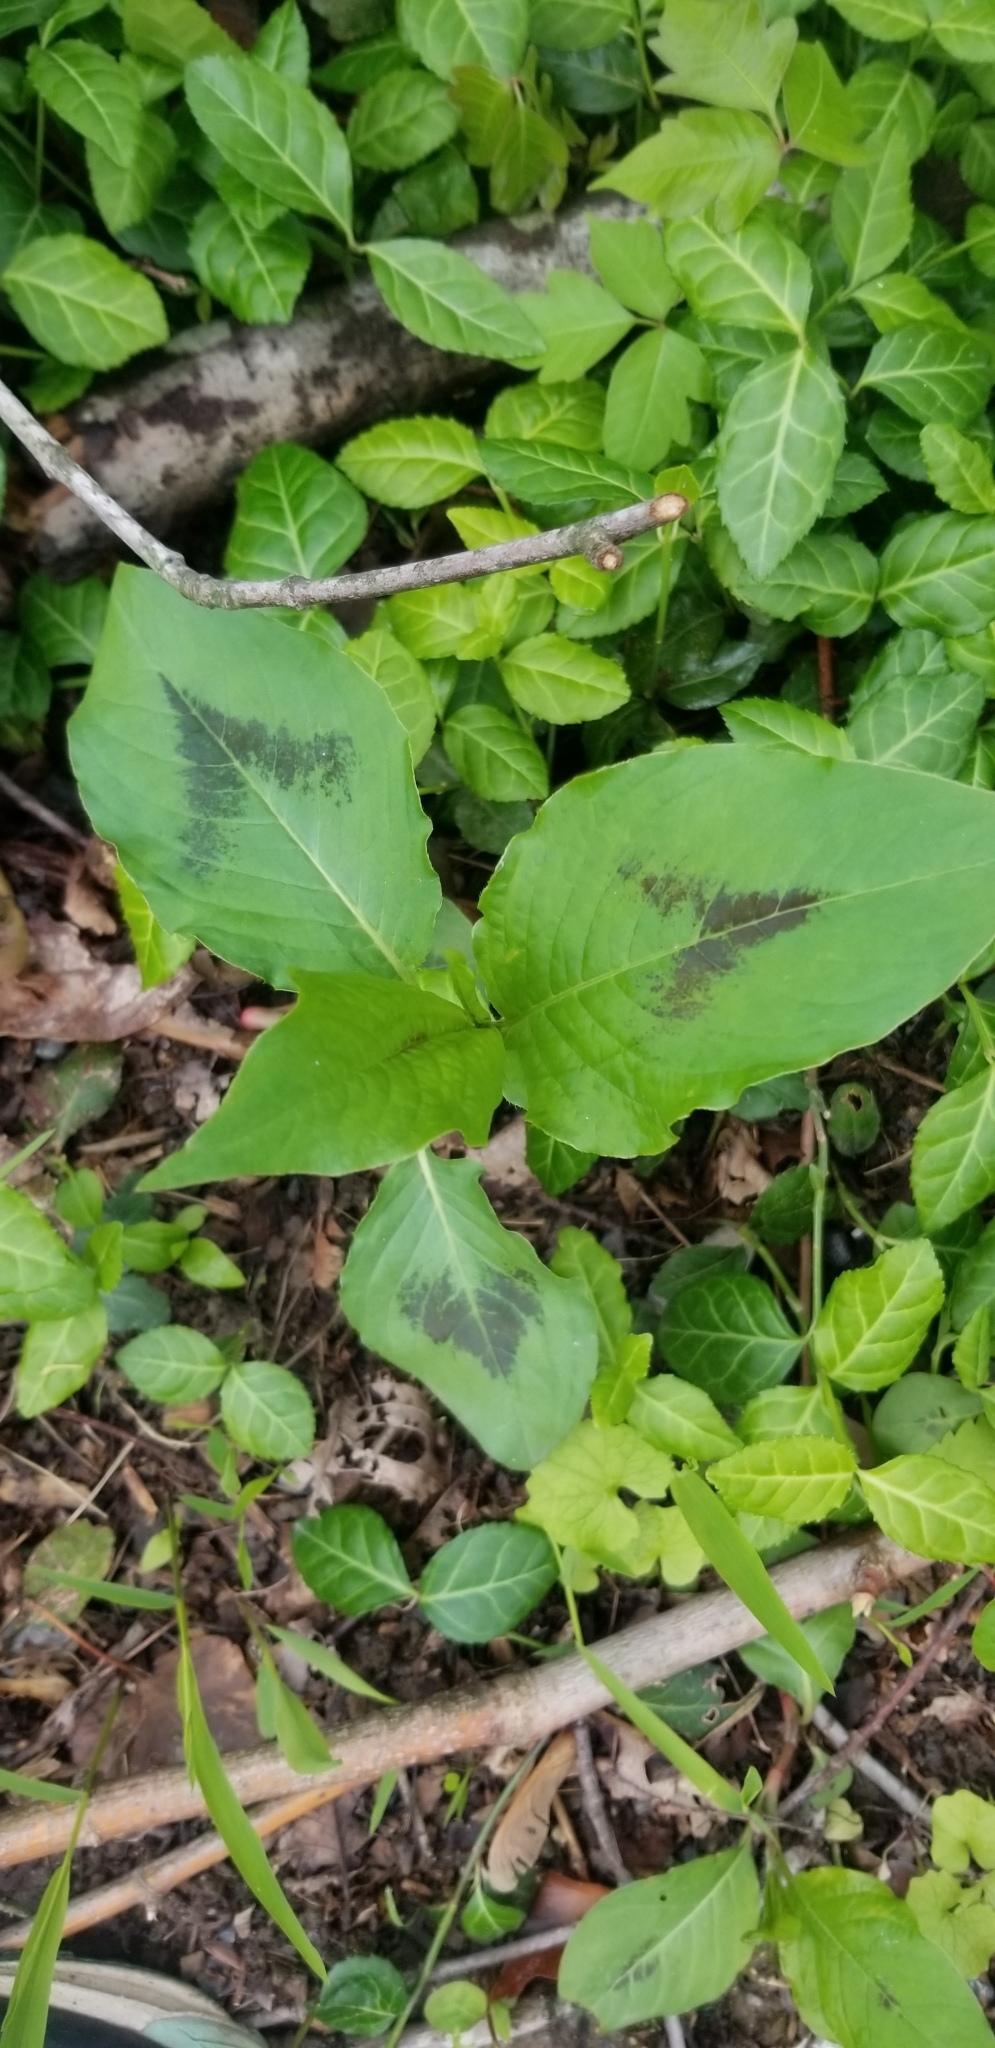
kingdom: Plantae
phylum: Tracheophyta
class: Magnoliopsida
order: Caryophyllales
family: Polygonaceae
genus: Persicaria
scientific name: Persicaria virginiana
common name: Jumpseed
